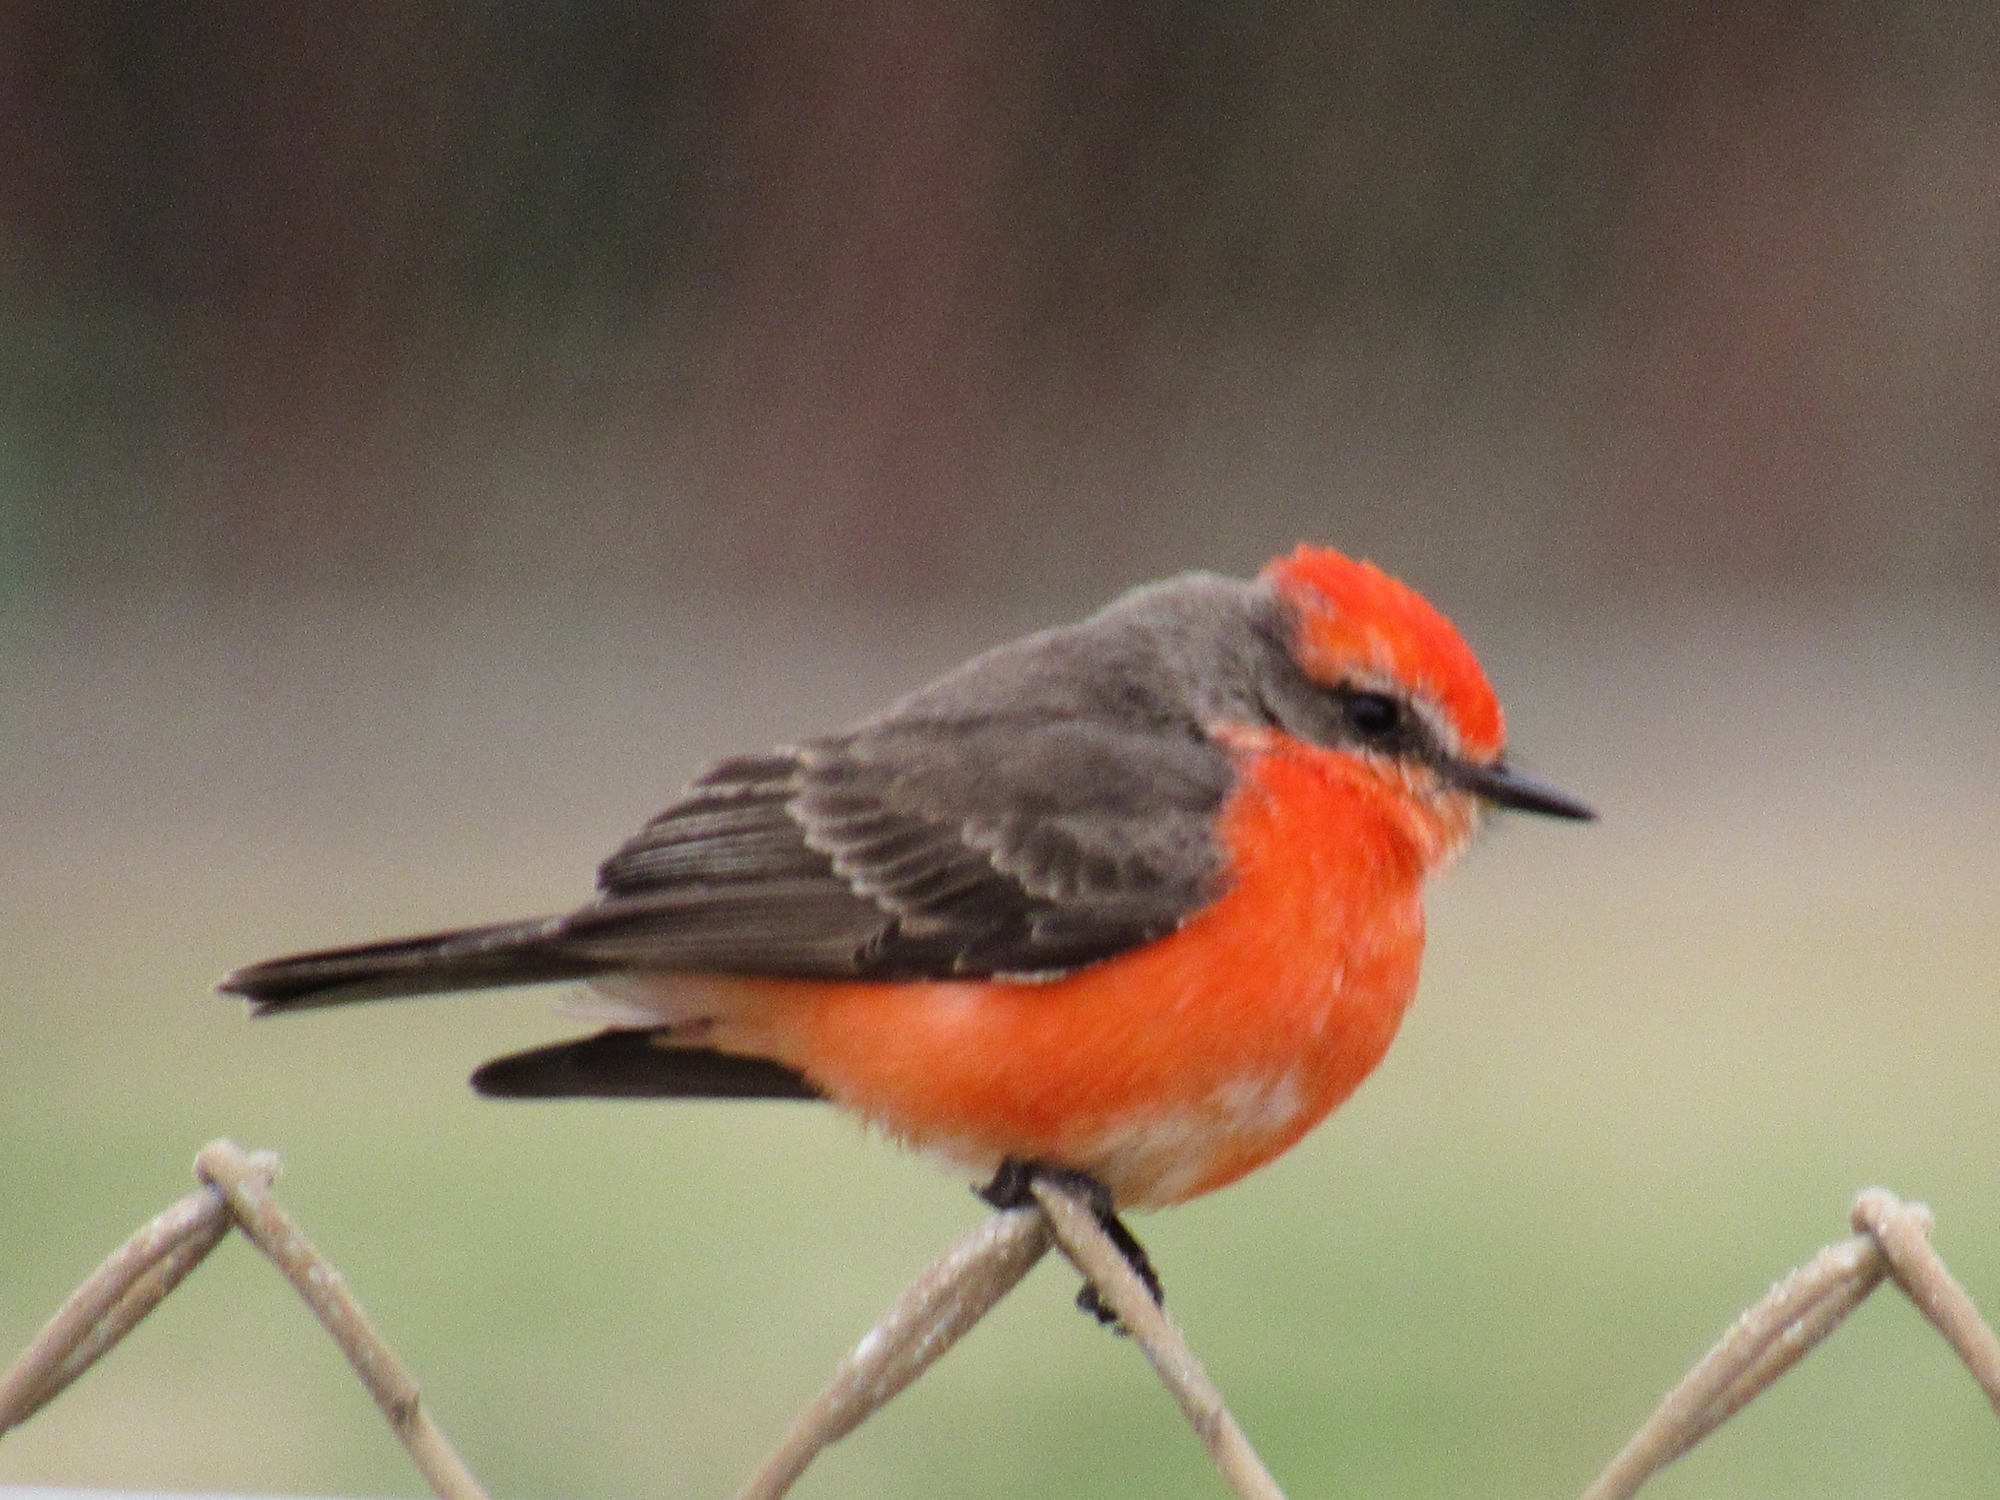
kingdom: Animalia
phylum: Chordata
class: Aves
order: Passeriformes
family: Tyrannidae
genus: Pyrocephalus
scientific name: Pyrocephalus rubinus
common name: Vermilion flycatcher
